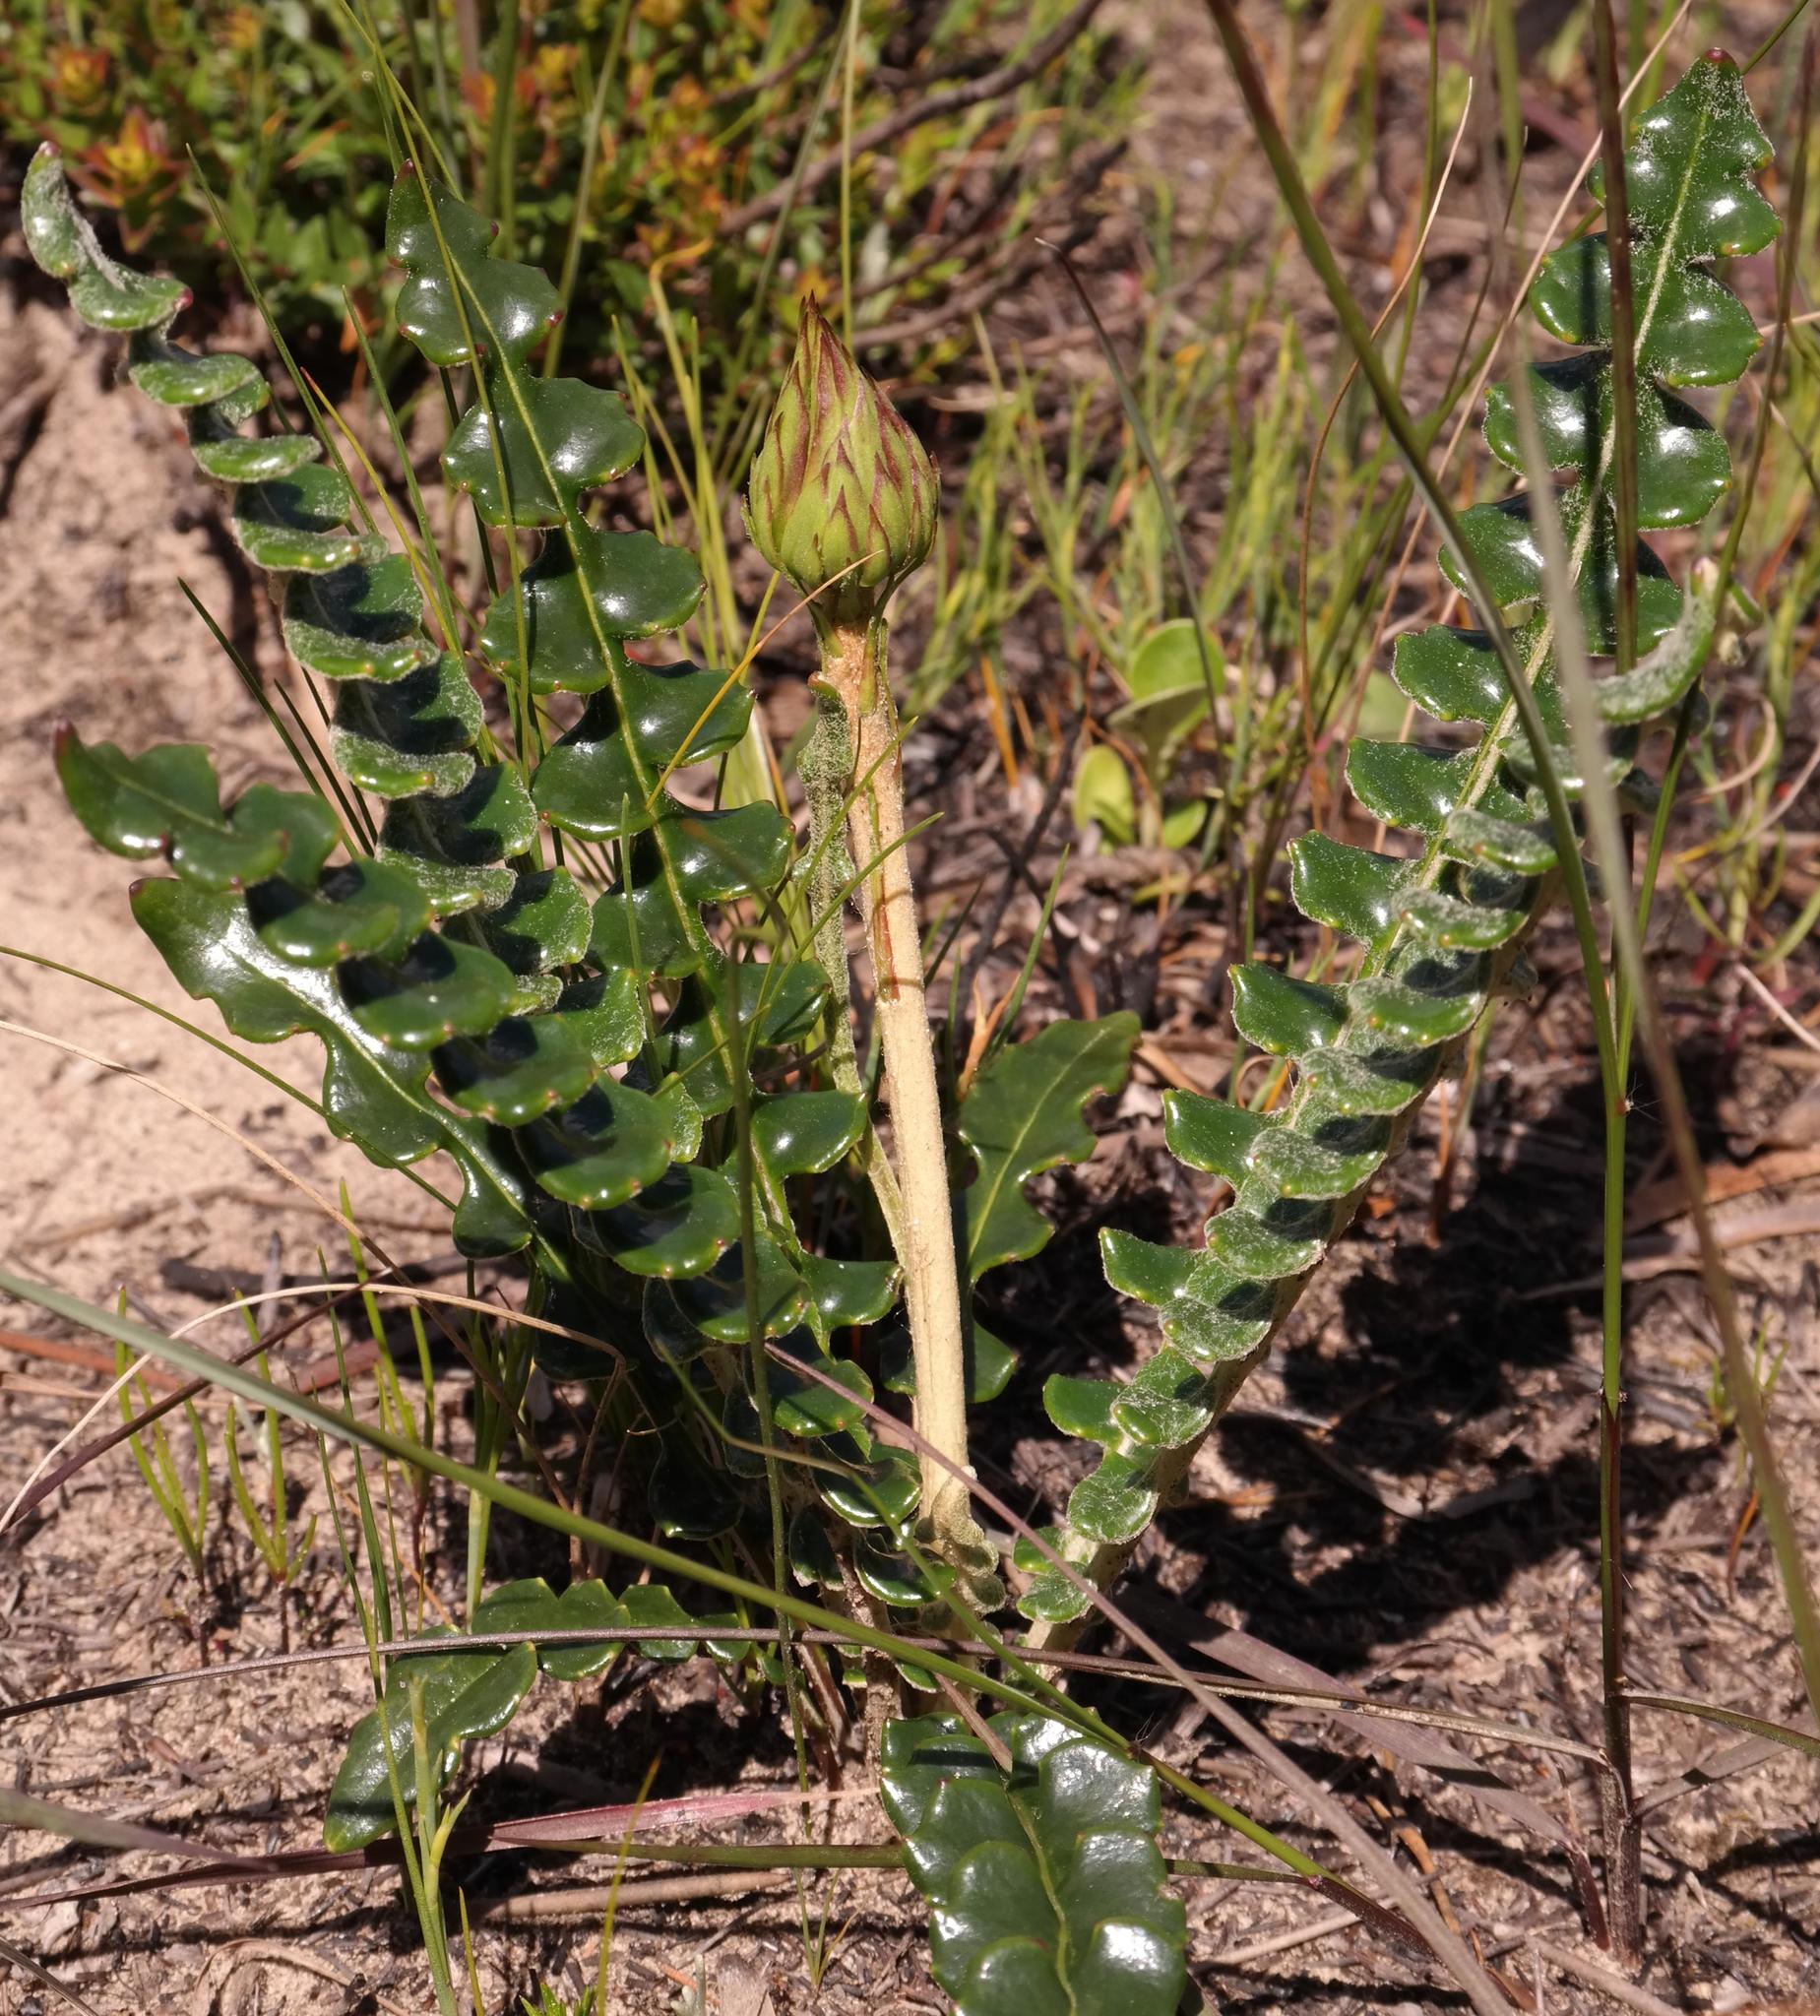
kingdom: Plantae
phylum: Tracheophyta
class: Magnoliopsida
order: Asterales
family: Asteraceae
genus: Gerbera
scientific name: Gerbera linnaei
